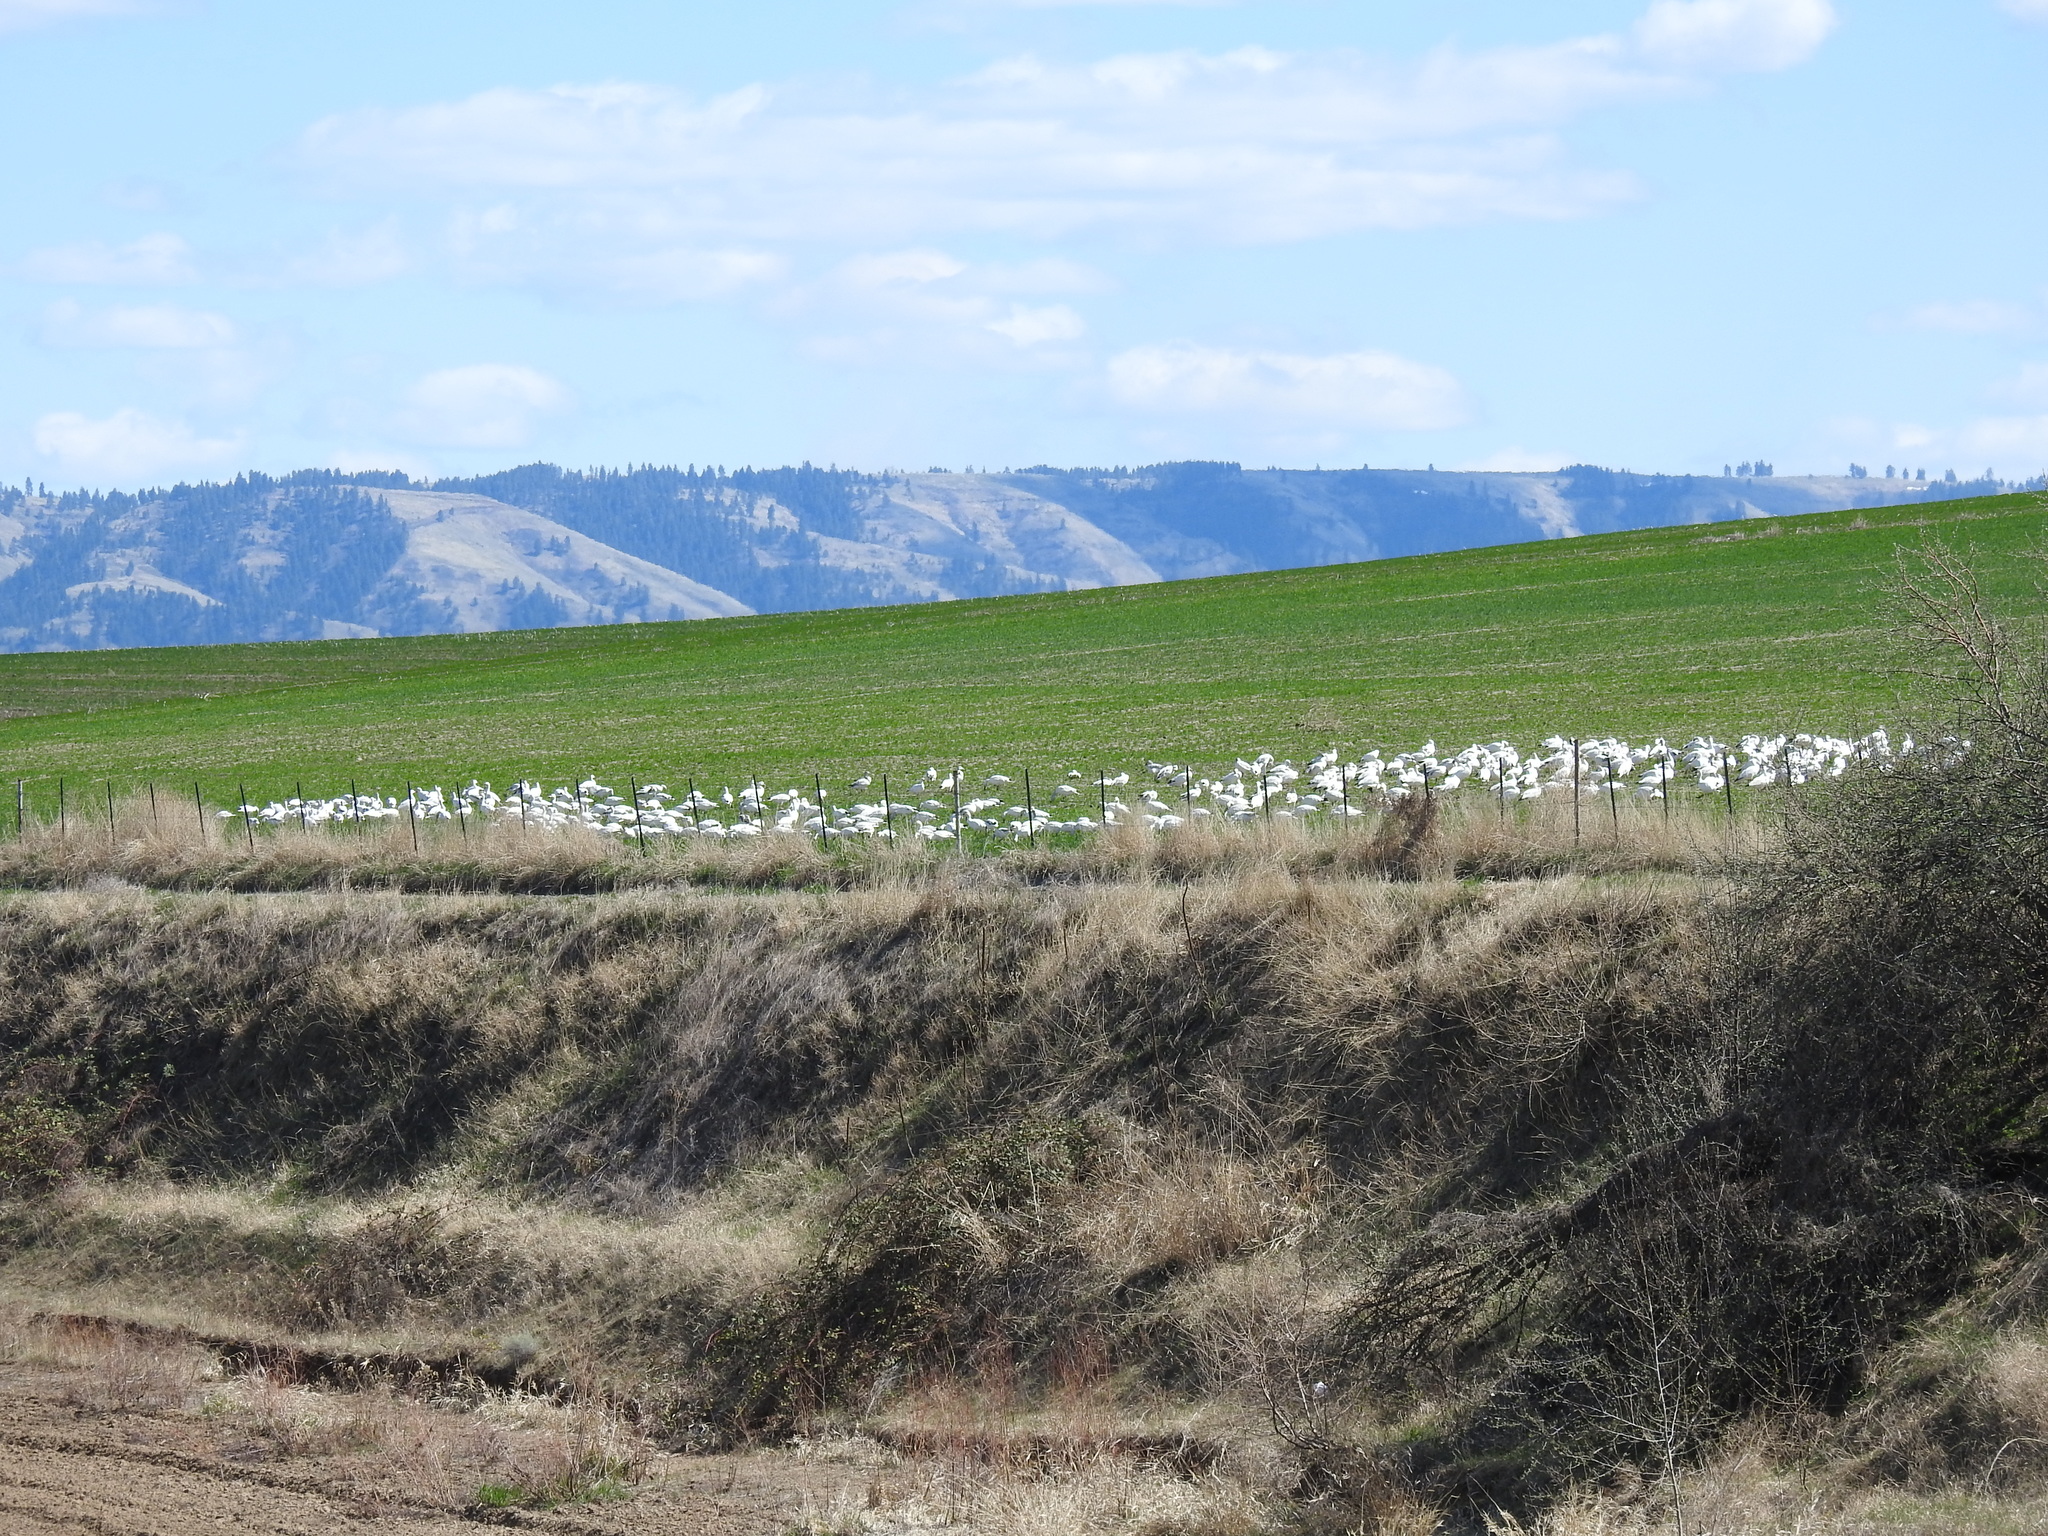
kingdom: Animalia
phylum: Chordata
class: Aves
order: Anseriformes
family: Anatidae
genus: Anser
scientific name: Anser caerulescens
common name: Snow goose
